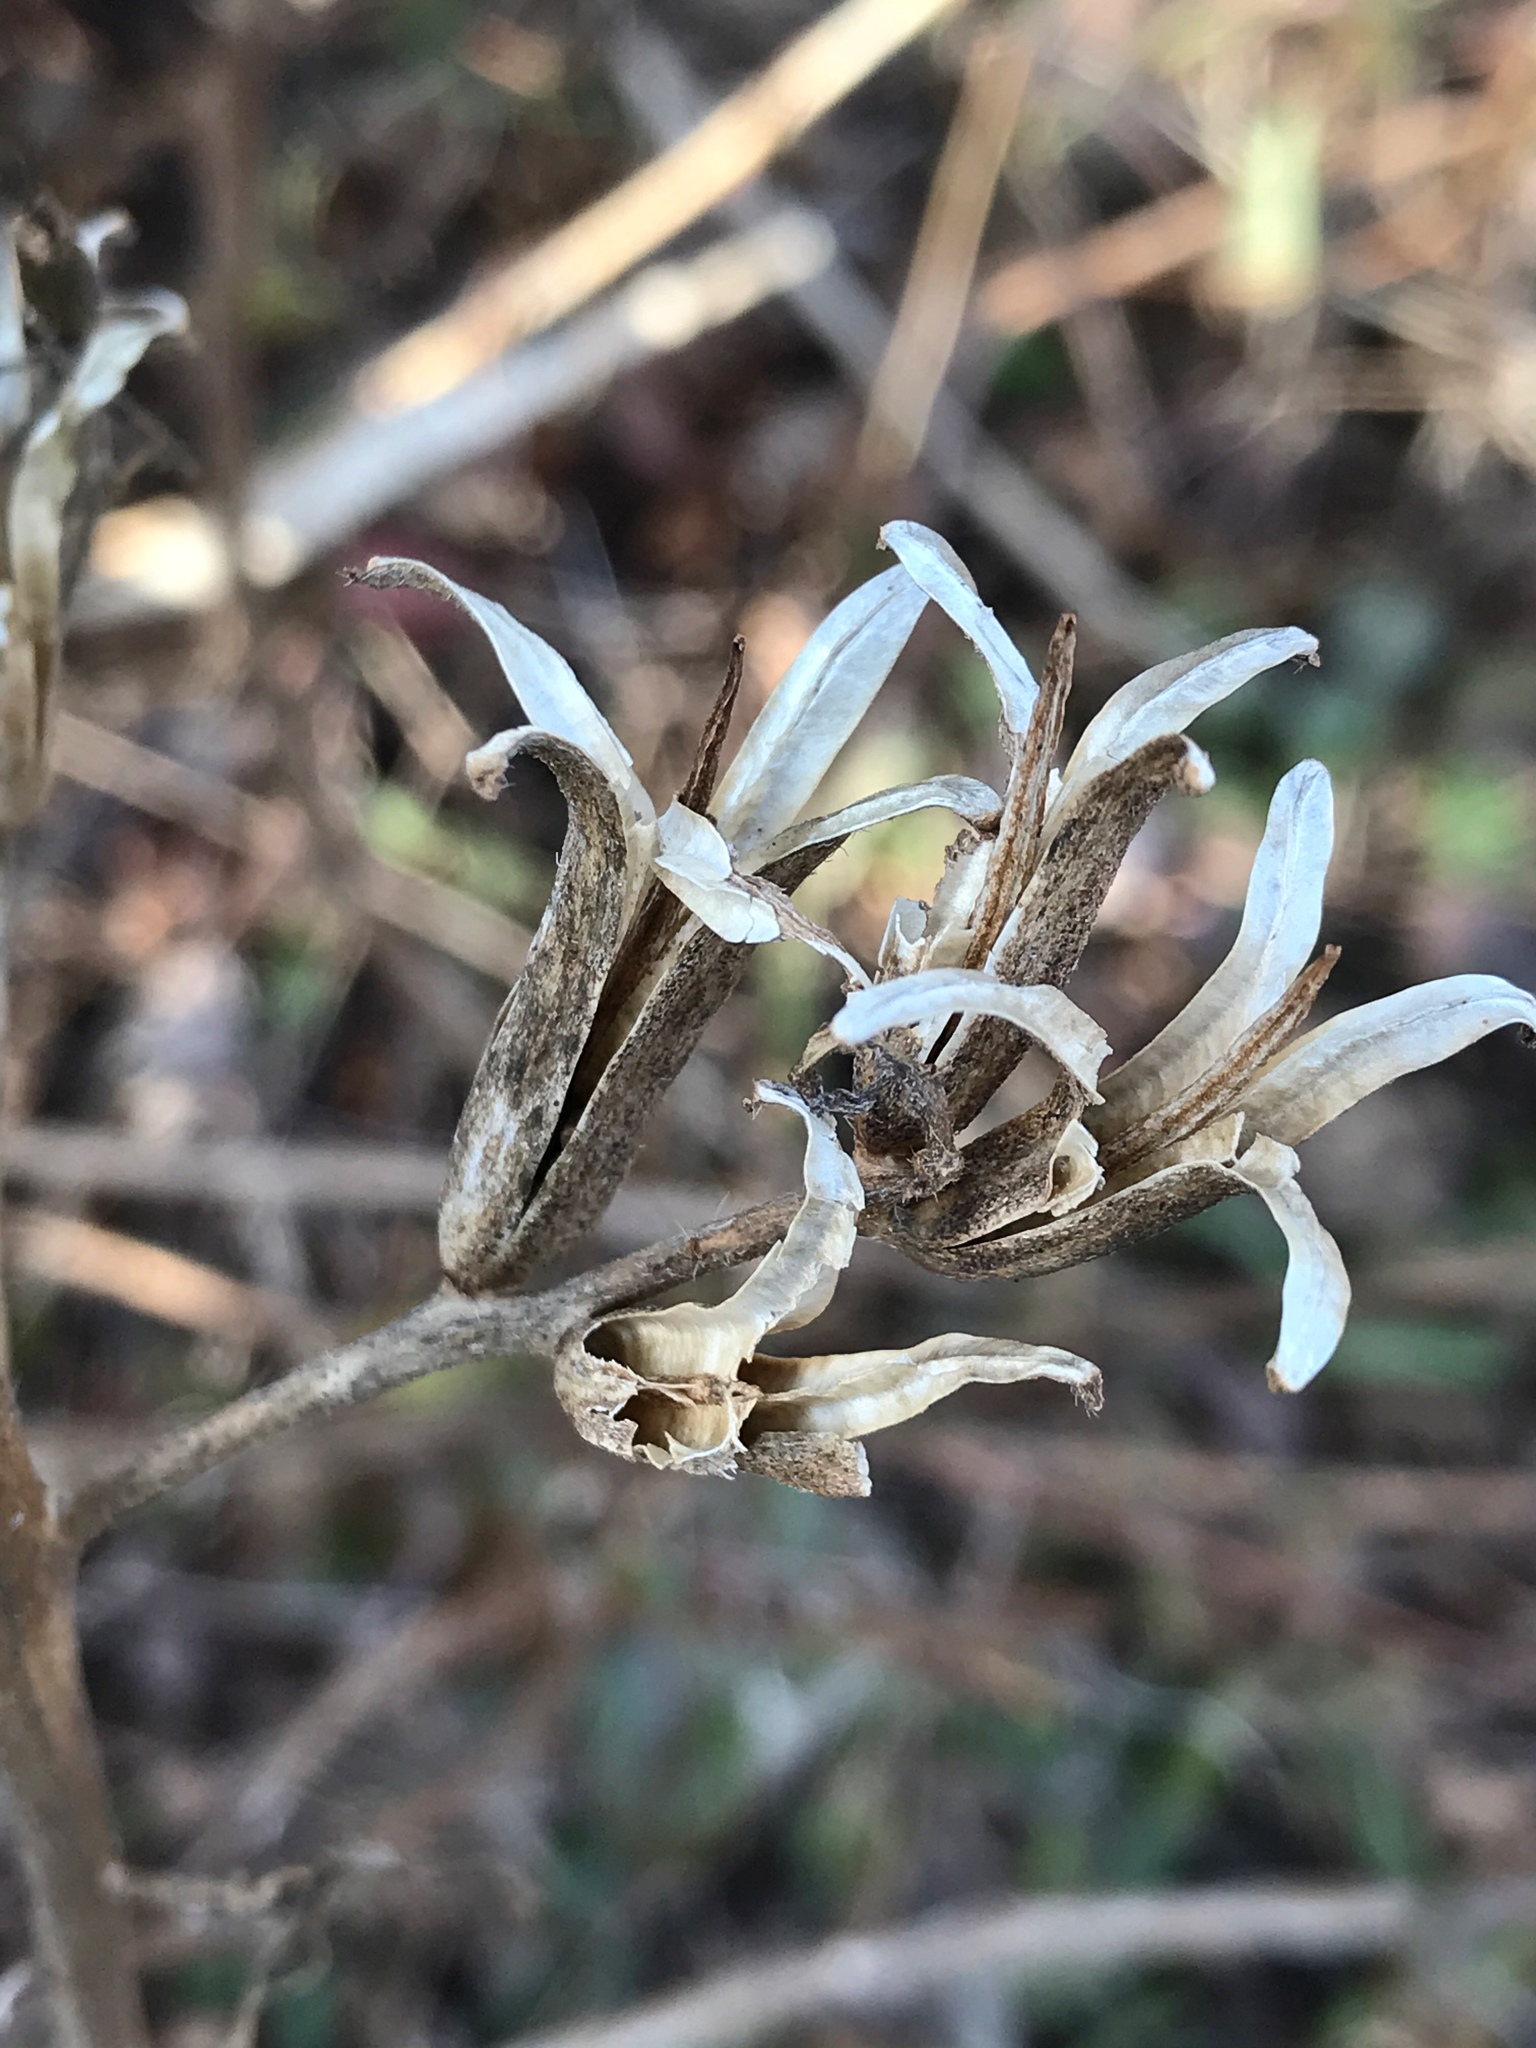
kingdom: Plantae
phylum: Tracheophyta
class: Magnoliopsida
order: Myrtales
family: Onagraceae
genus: Oenothera
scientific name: Oenothera biennis
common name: Common evening-primrose
